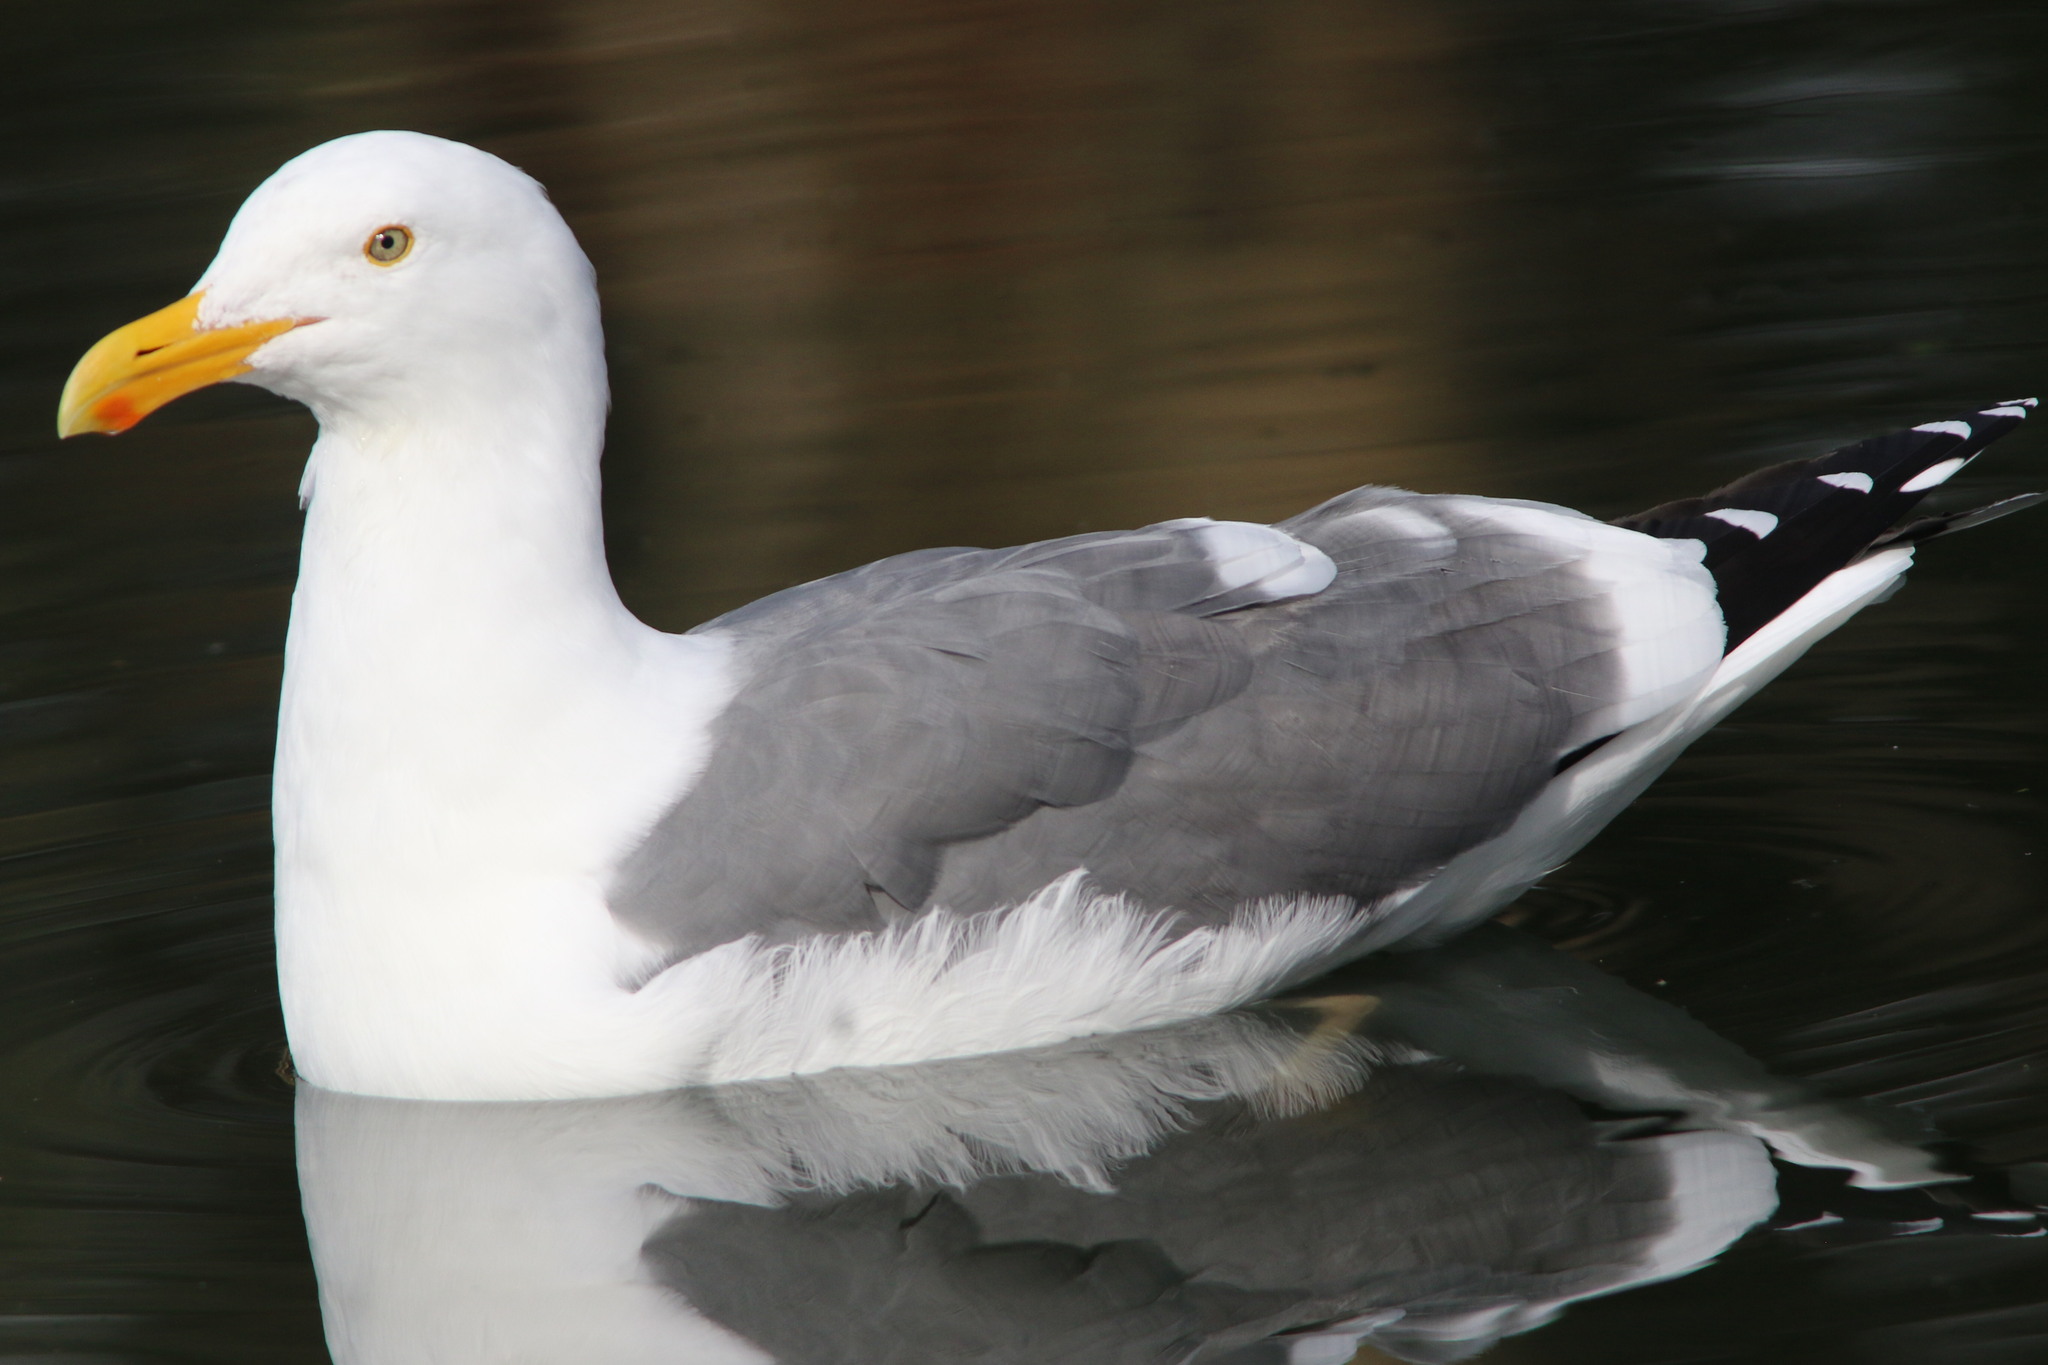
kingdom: Animalia
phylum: Chordata
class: Aves
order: Charadriiformes
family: Laridae
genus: Larus
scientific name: Larus occidentalis
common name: Western gull
